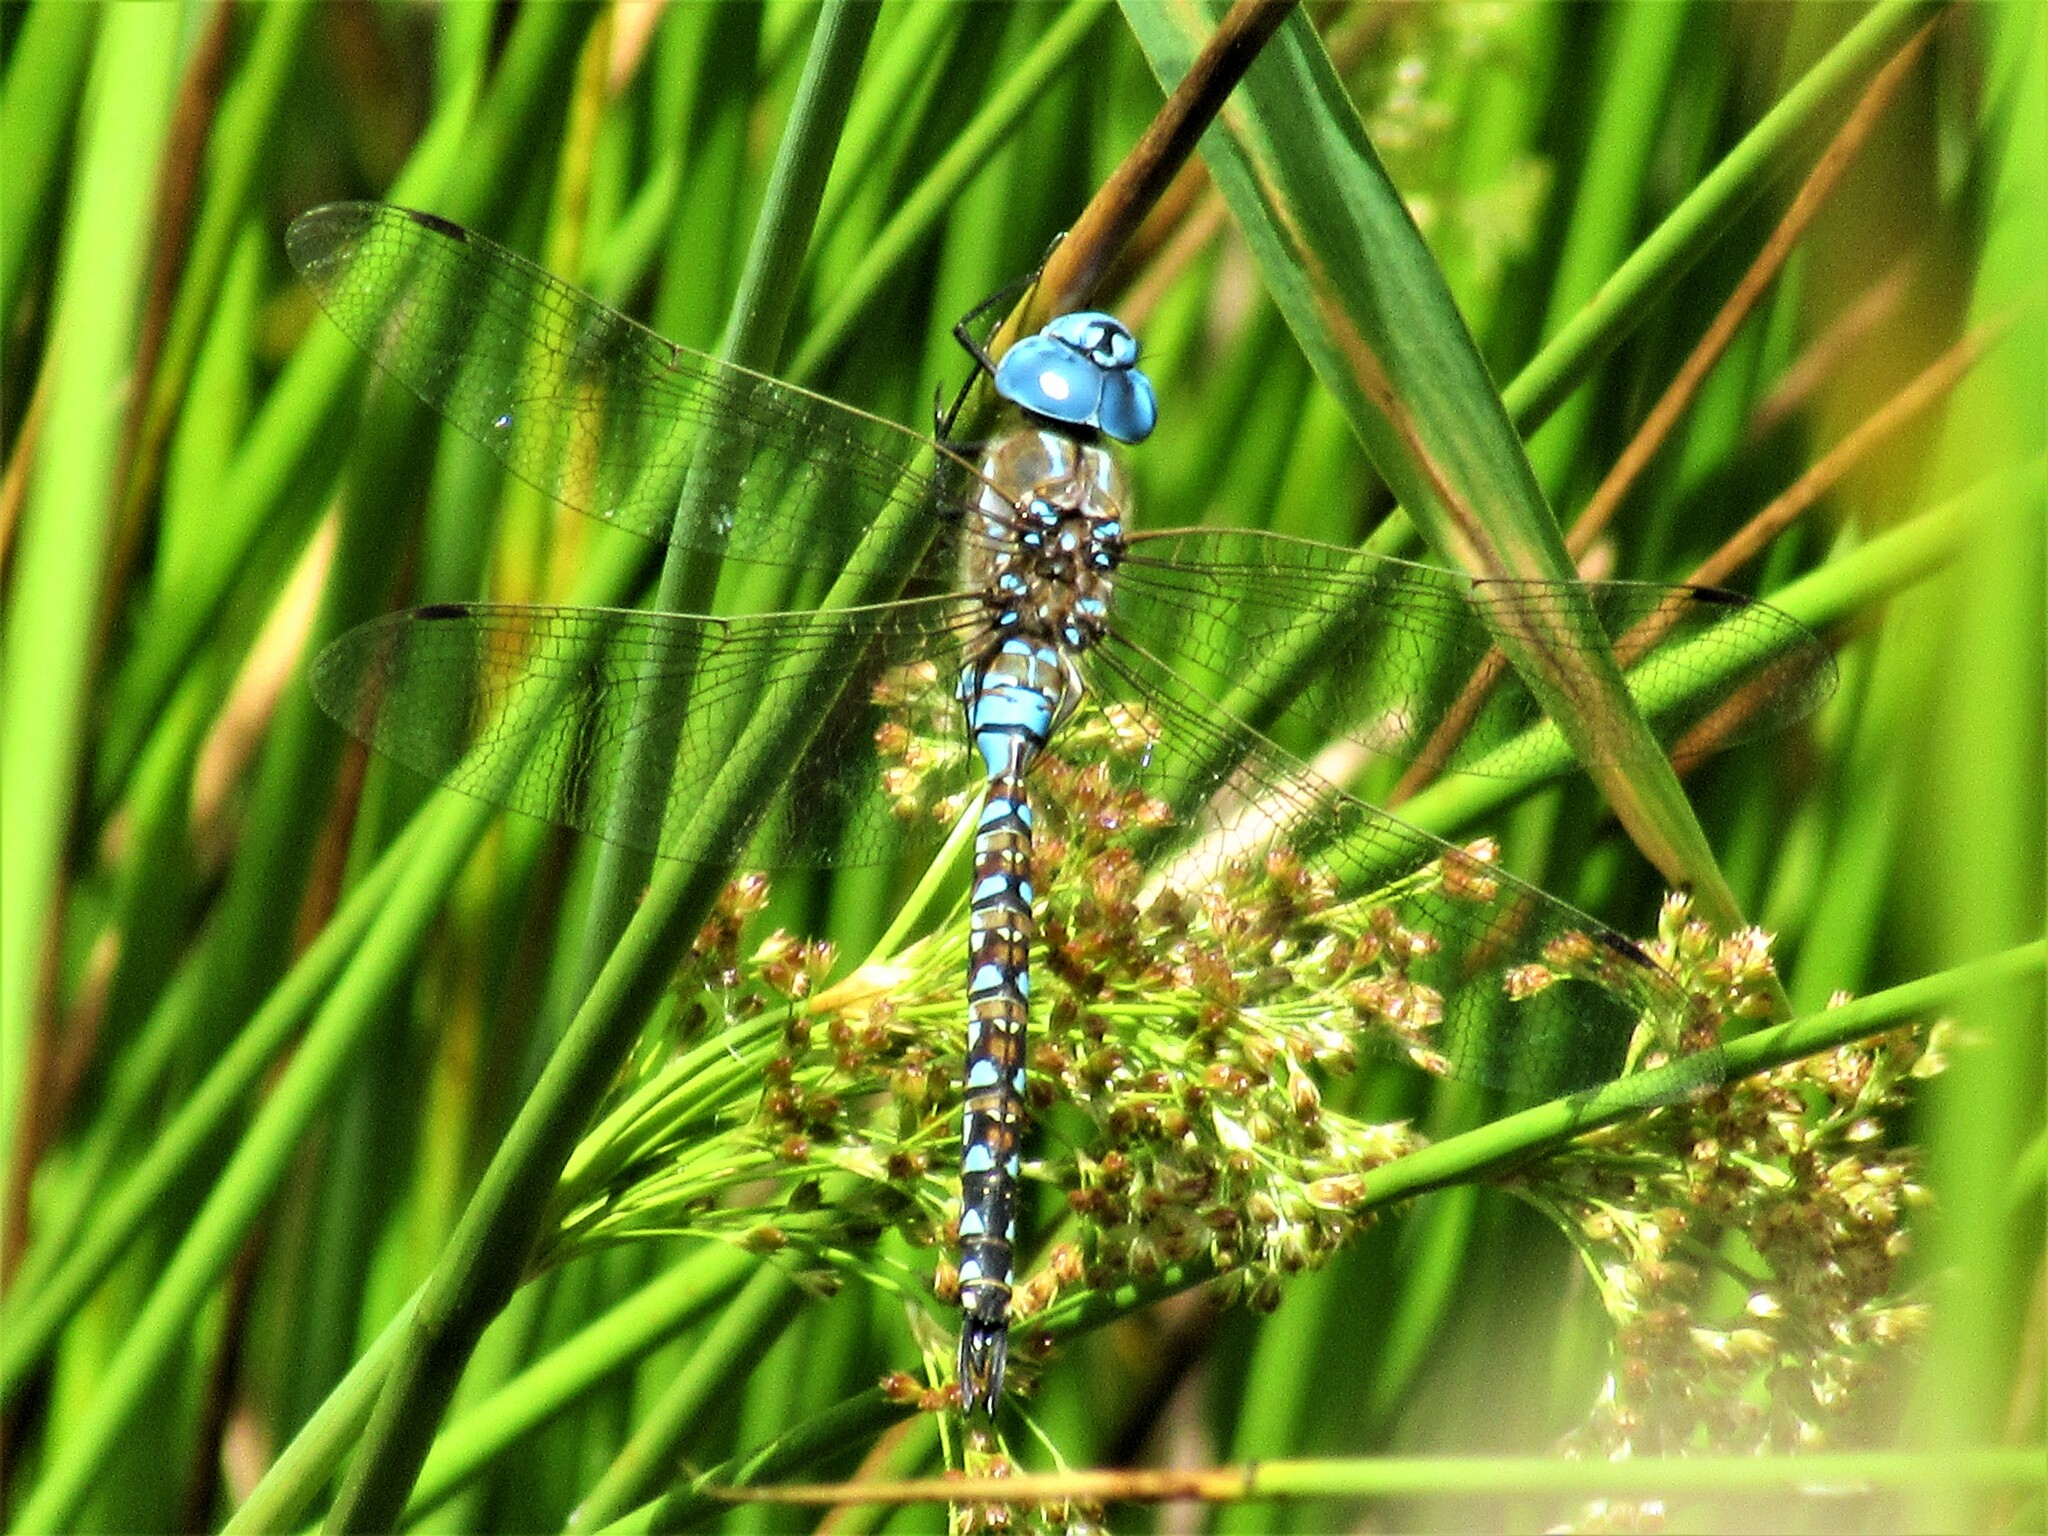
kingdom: Animalia
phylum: Arthropoda
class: Insecta
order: Odonata
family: Aeshnidae
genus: Rhionaeschna
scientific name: Rhionaeschna multicolor
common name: Blue-eyed darner
